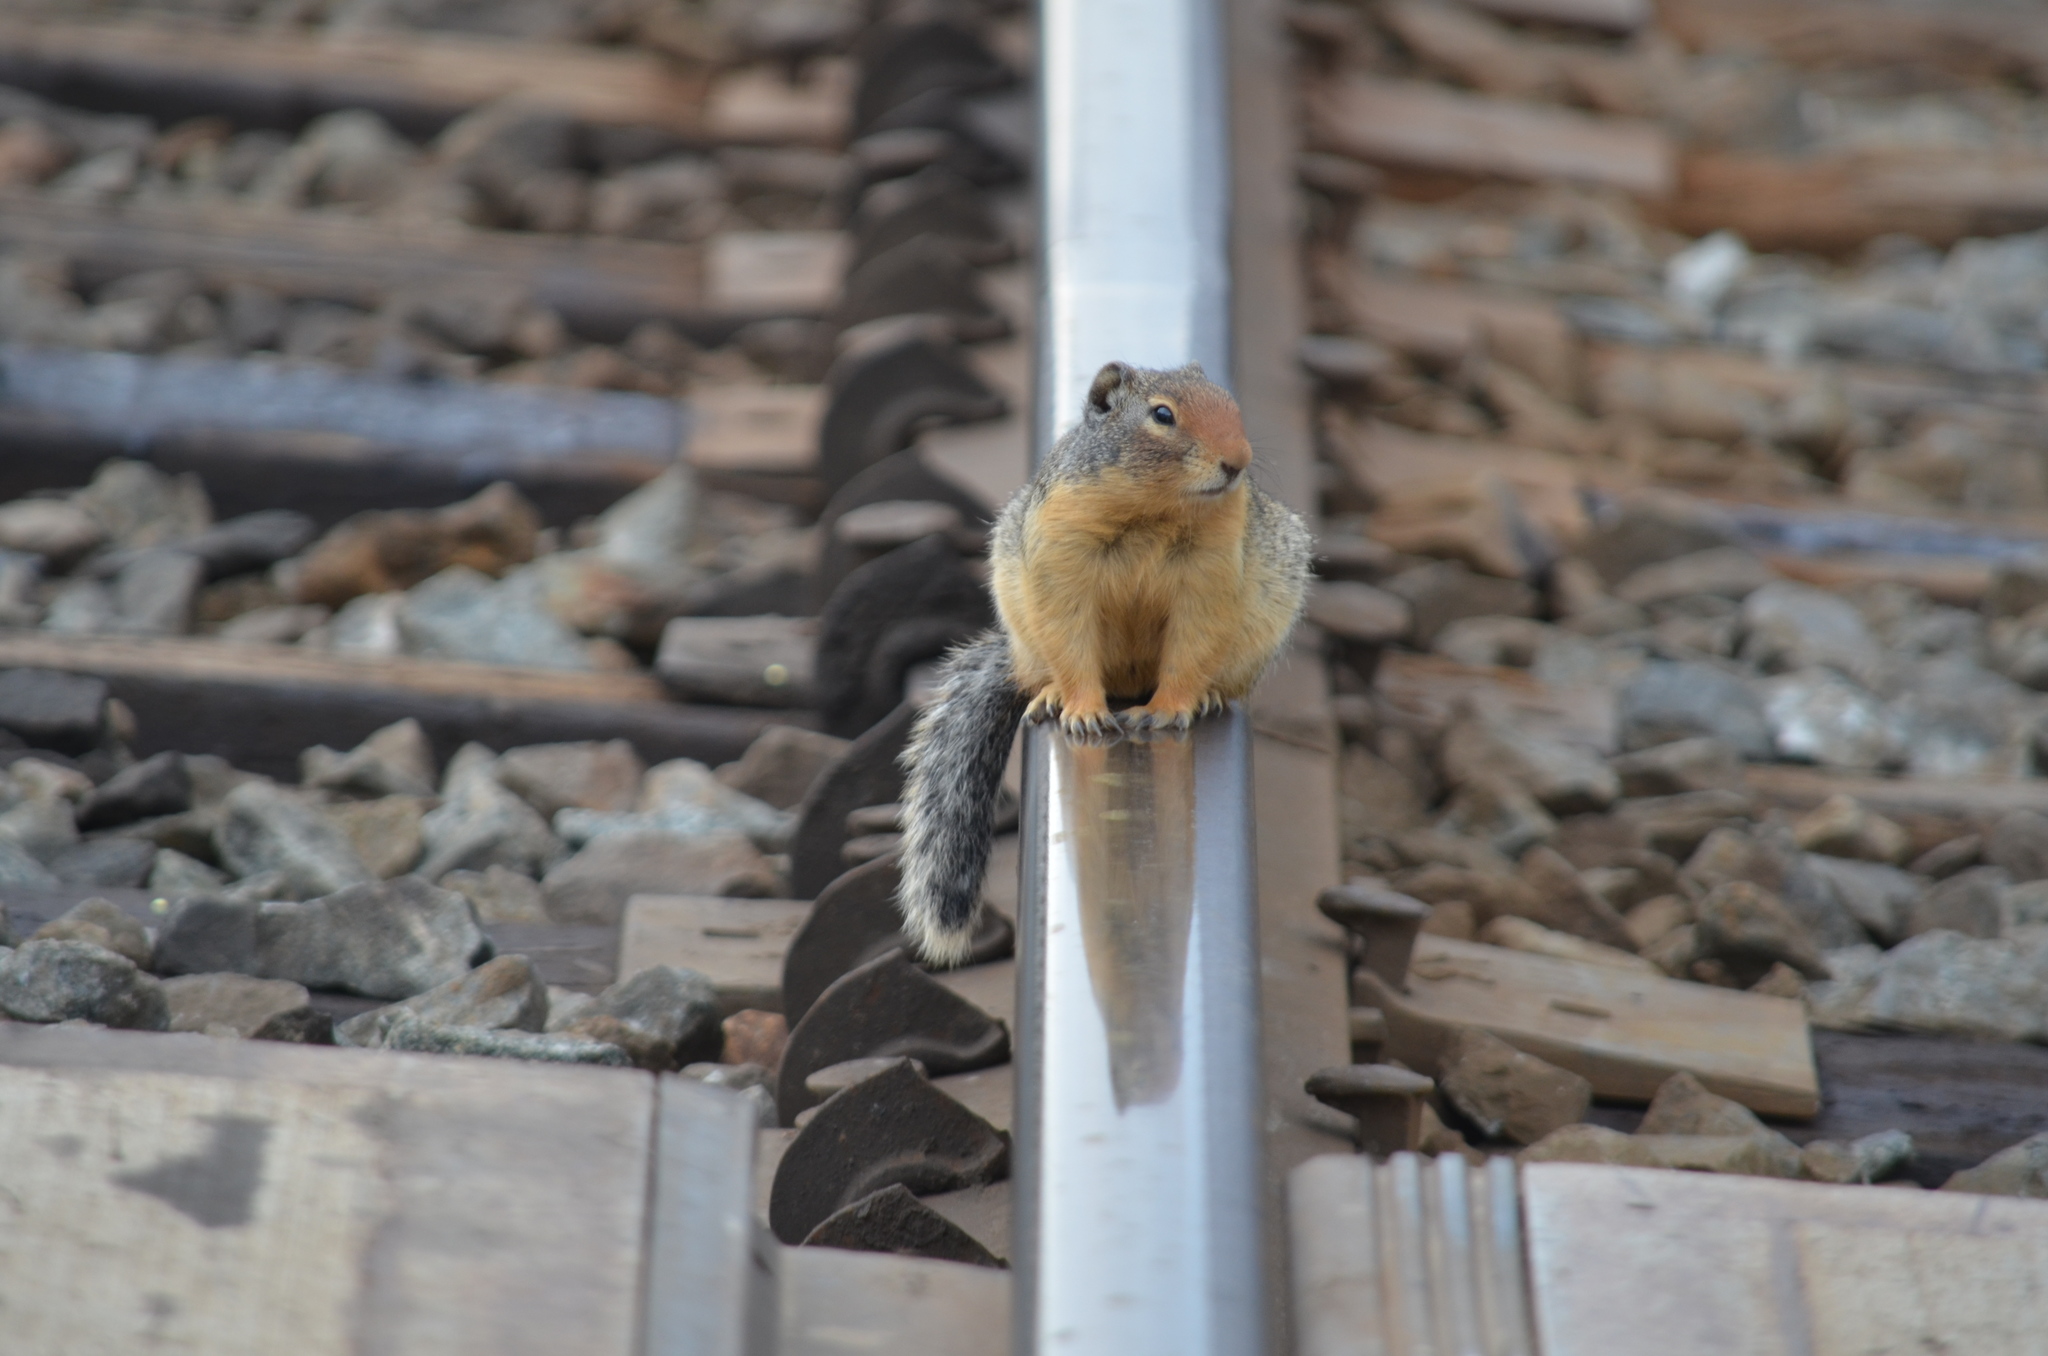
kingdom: Animalia
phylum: Chordata
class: Mammalia
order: Rodentia
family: Sciuridae
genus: Urocitellus
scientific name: Urocitellus columbianus
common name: Columbian ground squirrel
